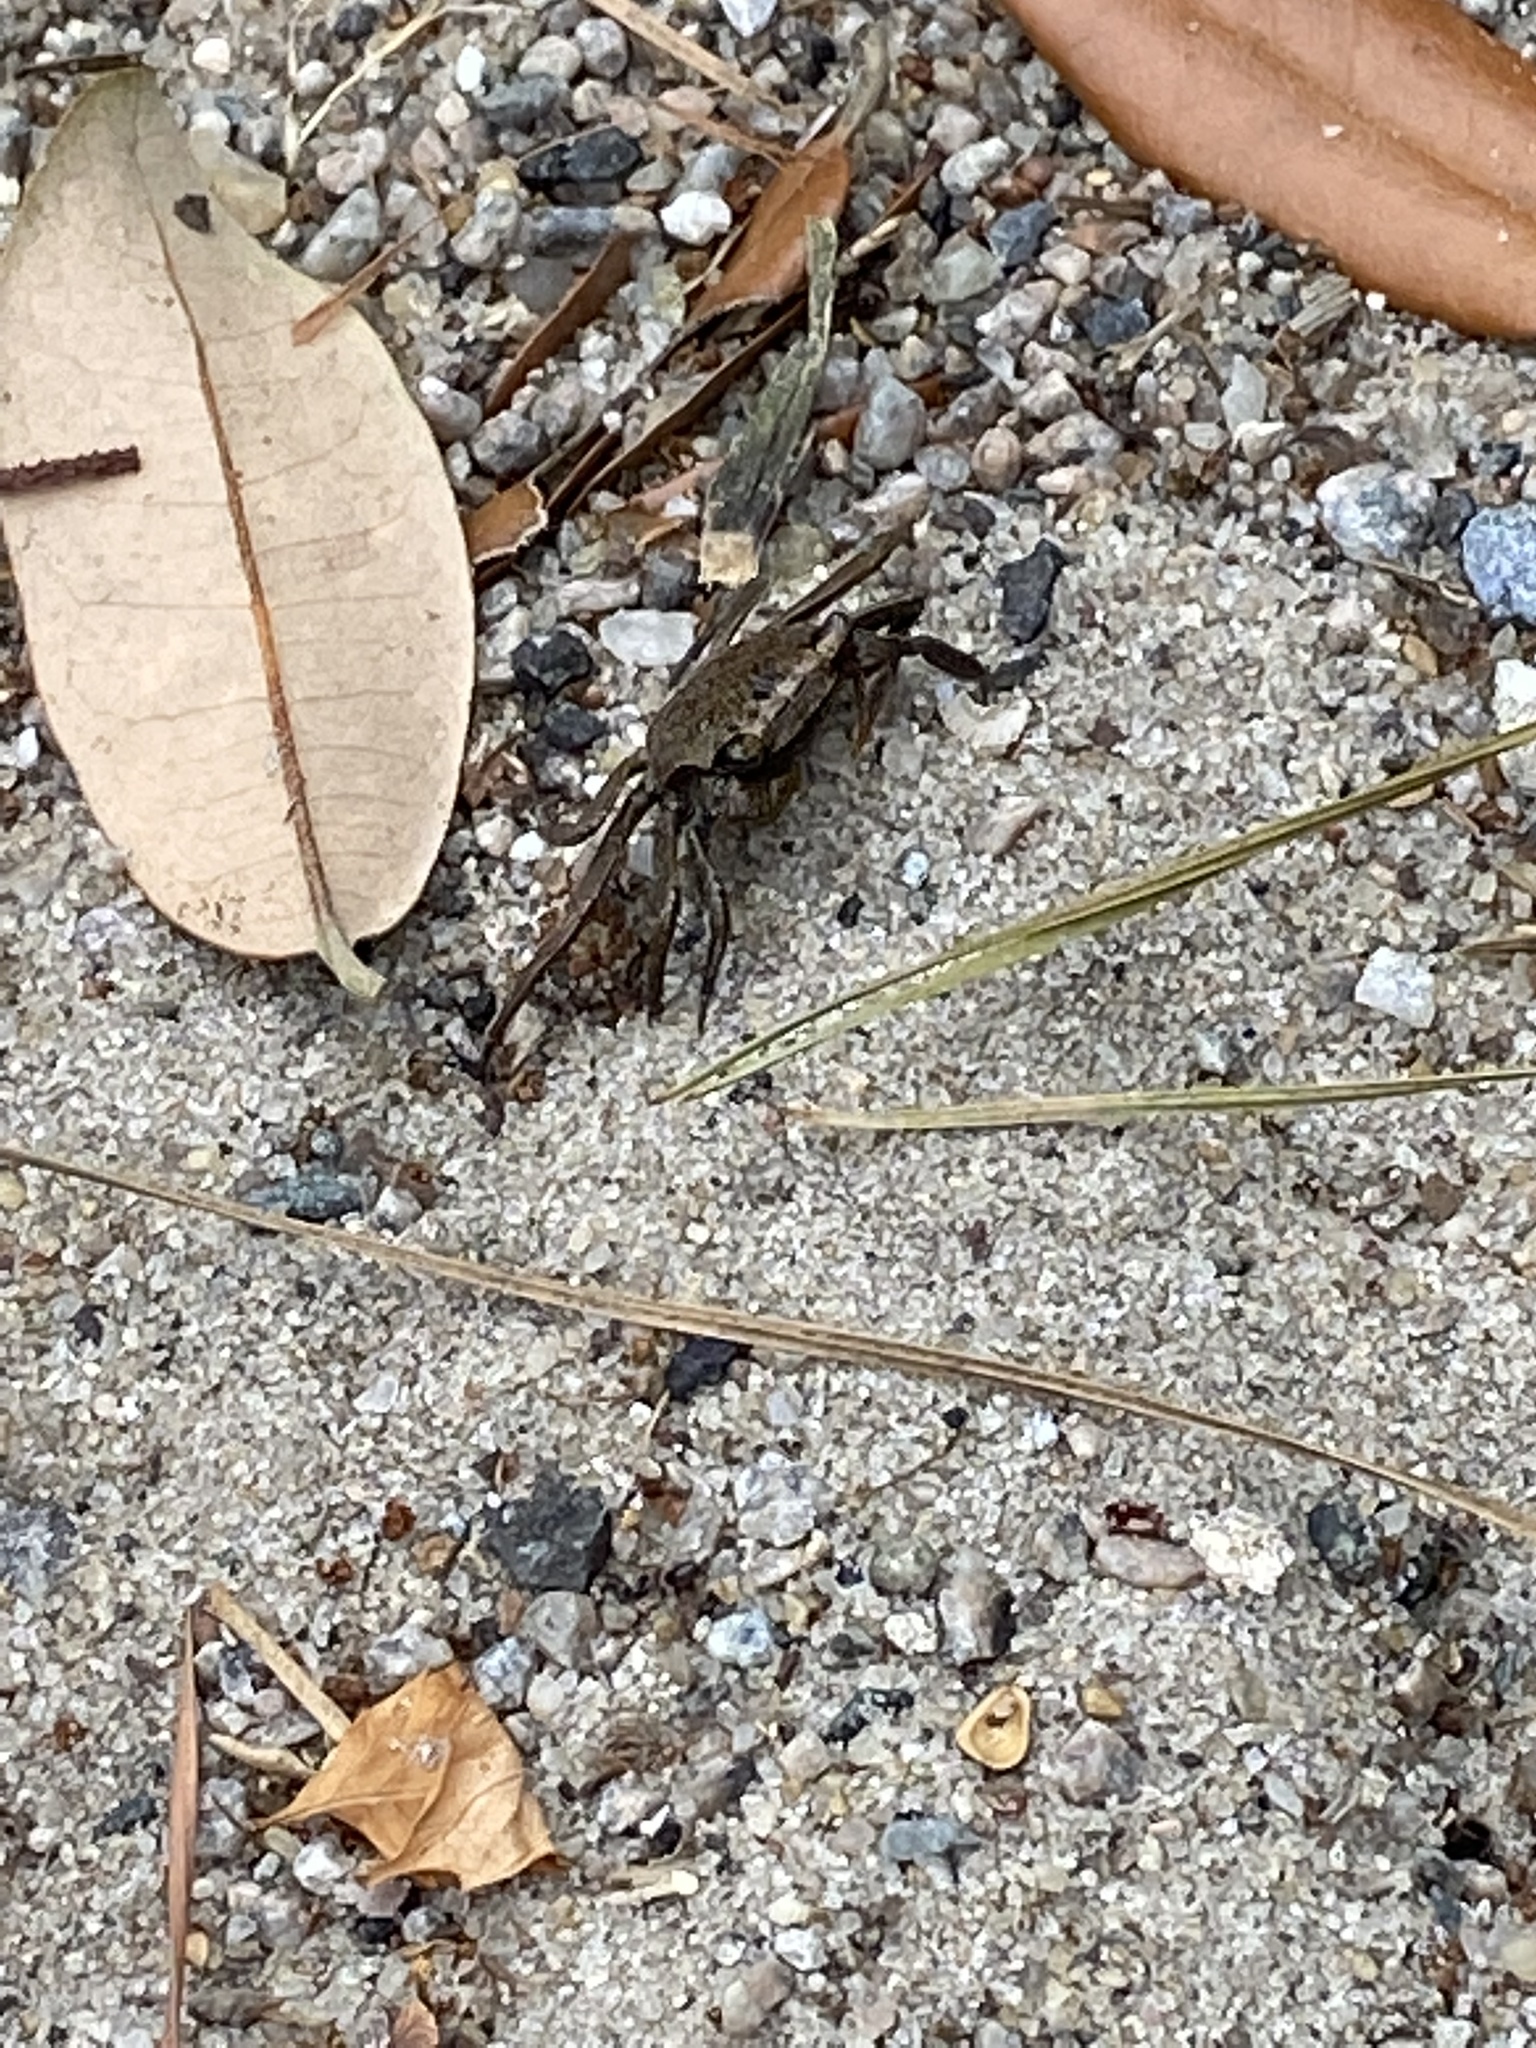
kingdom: Animalia
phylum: Arthropoda
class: Malacostraca
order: Decapoda
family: Sesarmidae
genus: Armases
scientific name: Armases cinereum
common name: Squareback marsh crab
